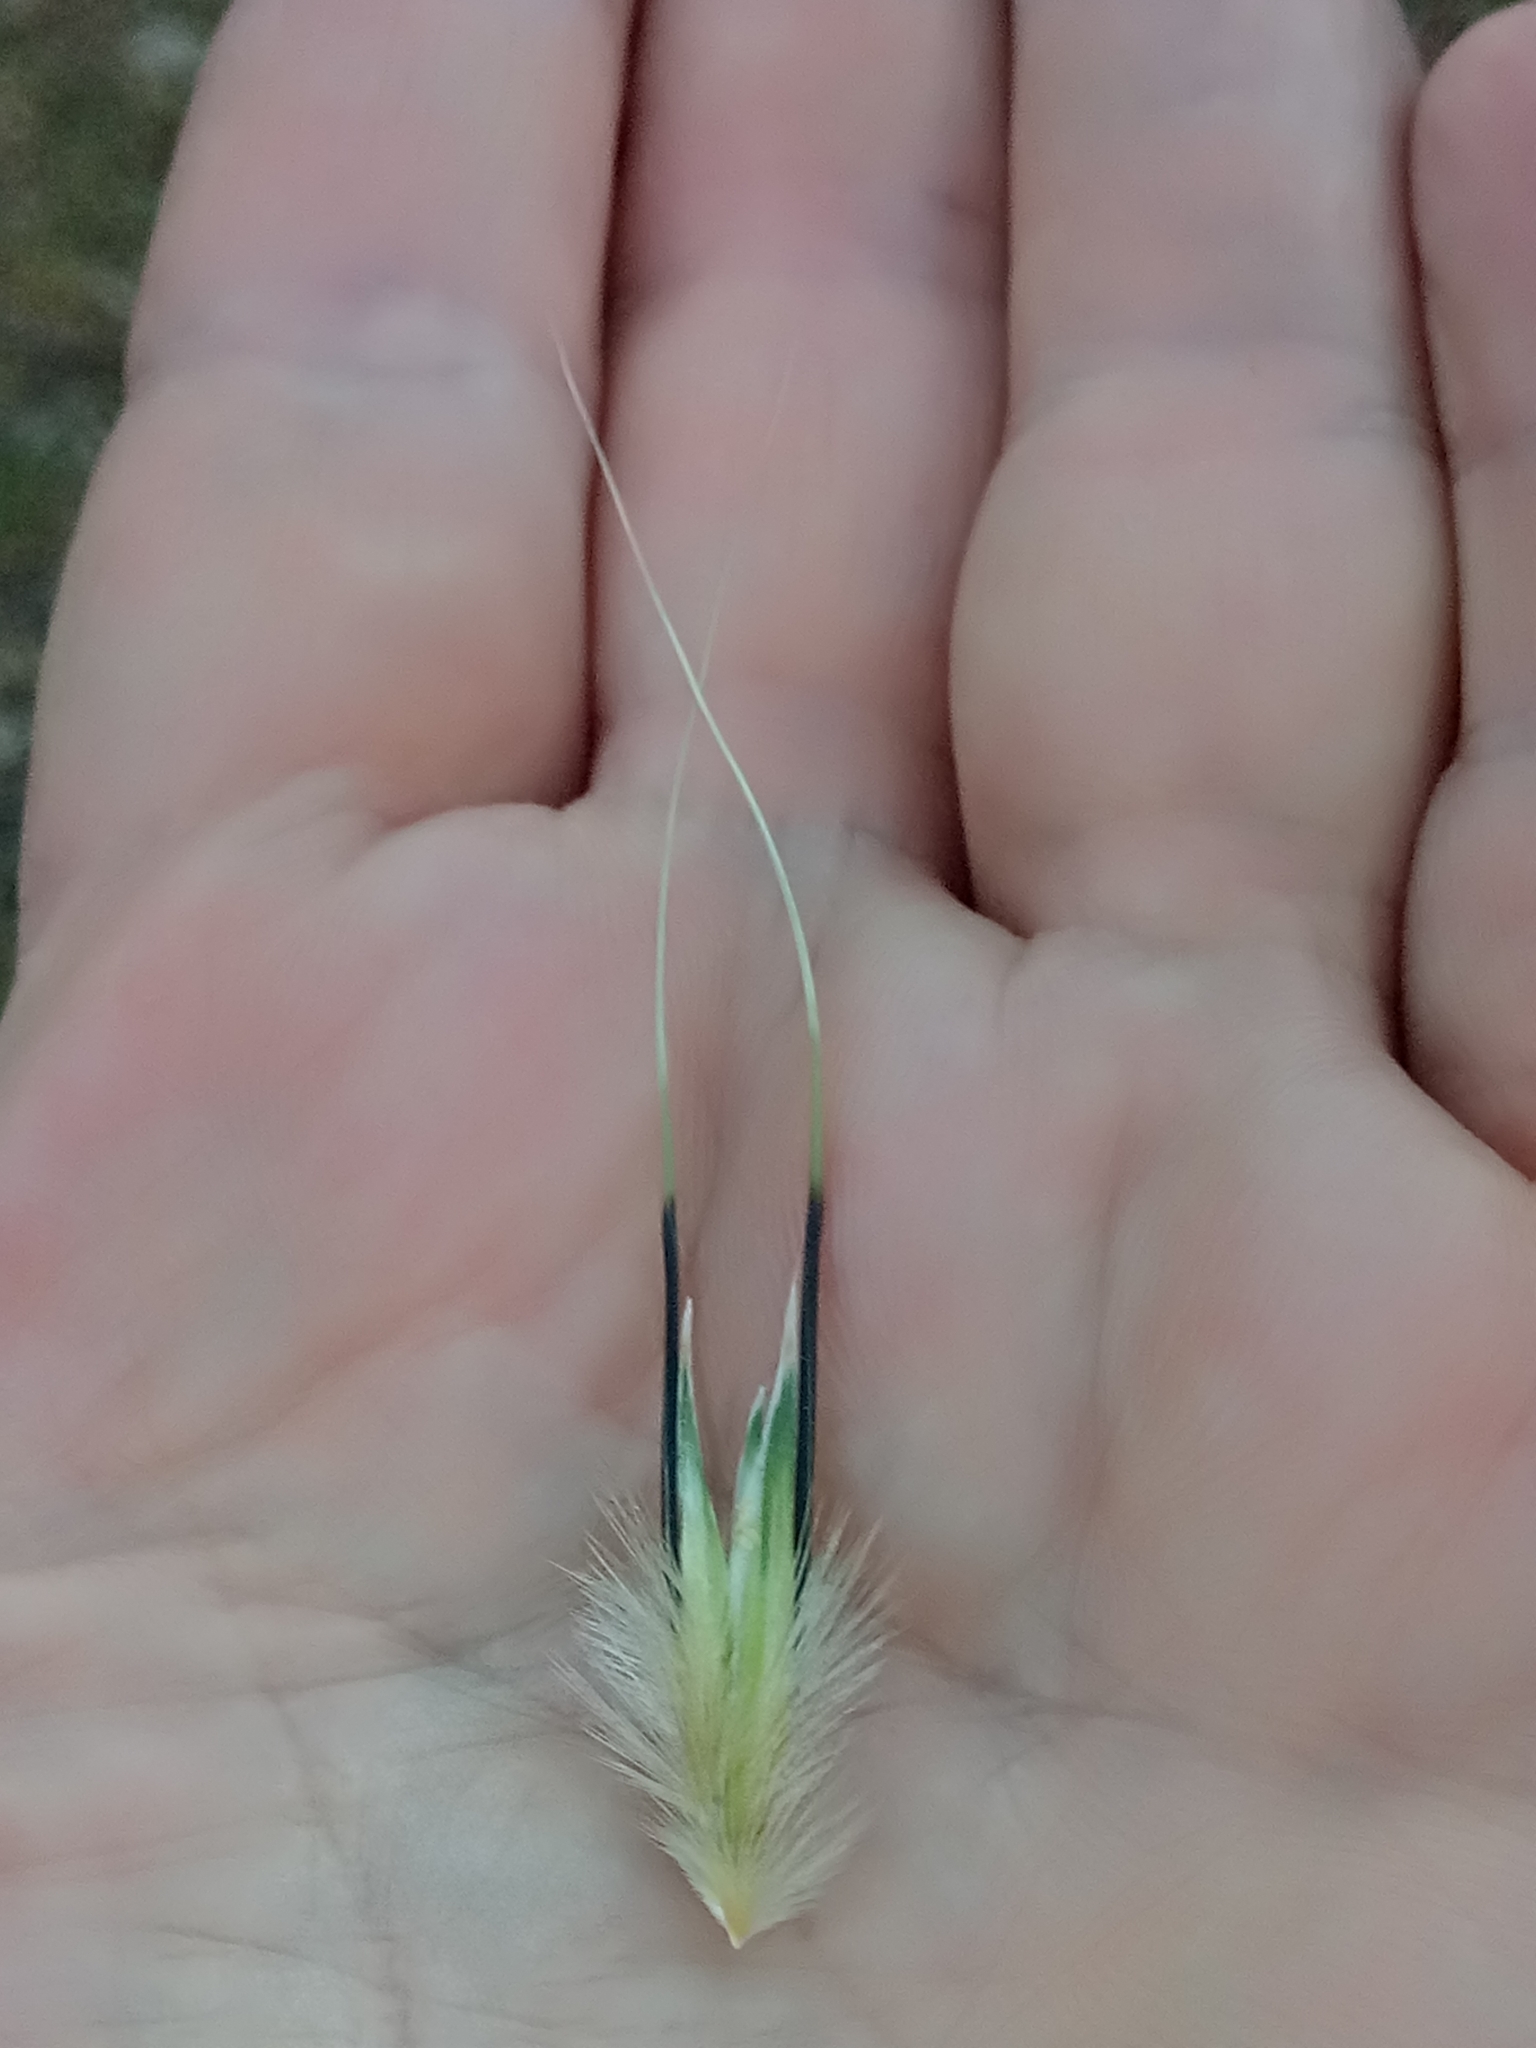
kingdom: Plantae
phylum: Tracheophyta
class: Liliopsida
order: Poales
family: Poaceae
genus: Avena
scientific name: Avena sterilis
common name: Animated oat
